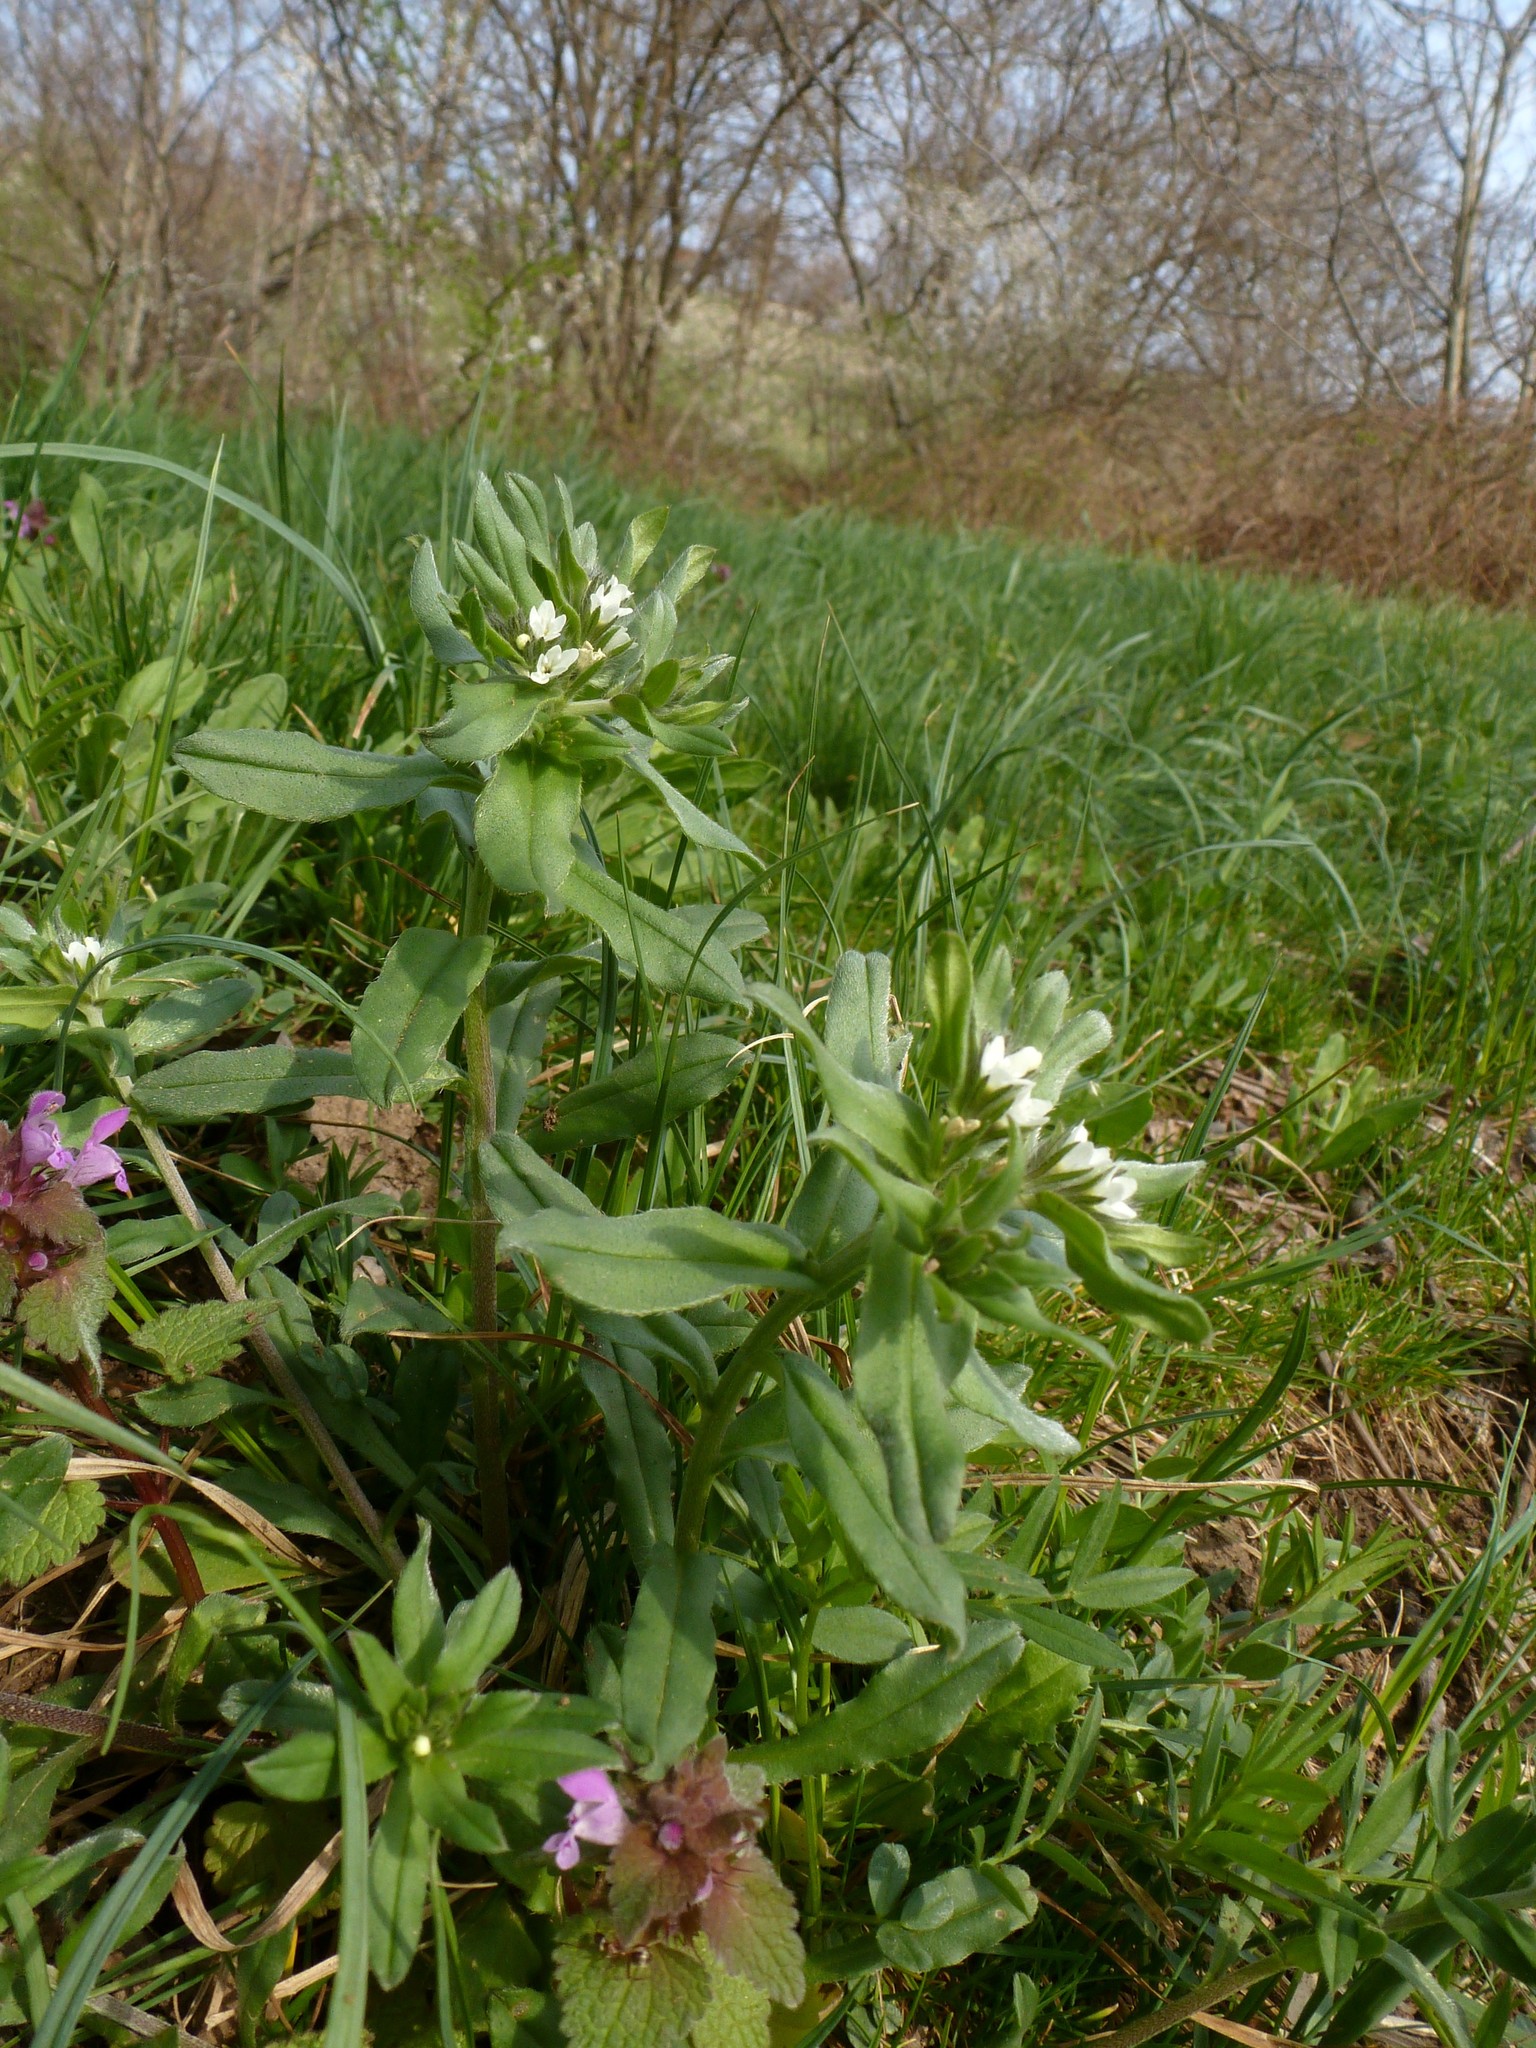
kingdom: Plantae
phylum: Tracheophyta
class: Magnoliopsida
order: Boraginales
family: Boraginaceae
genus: Buglossoides
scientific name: Buglossoides arvensis
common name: Corn gromwell
